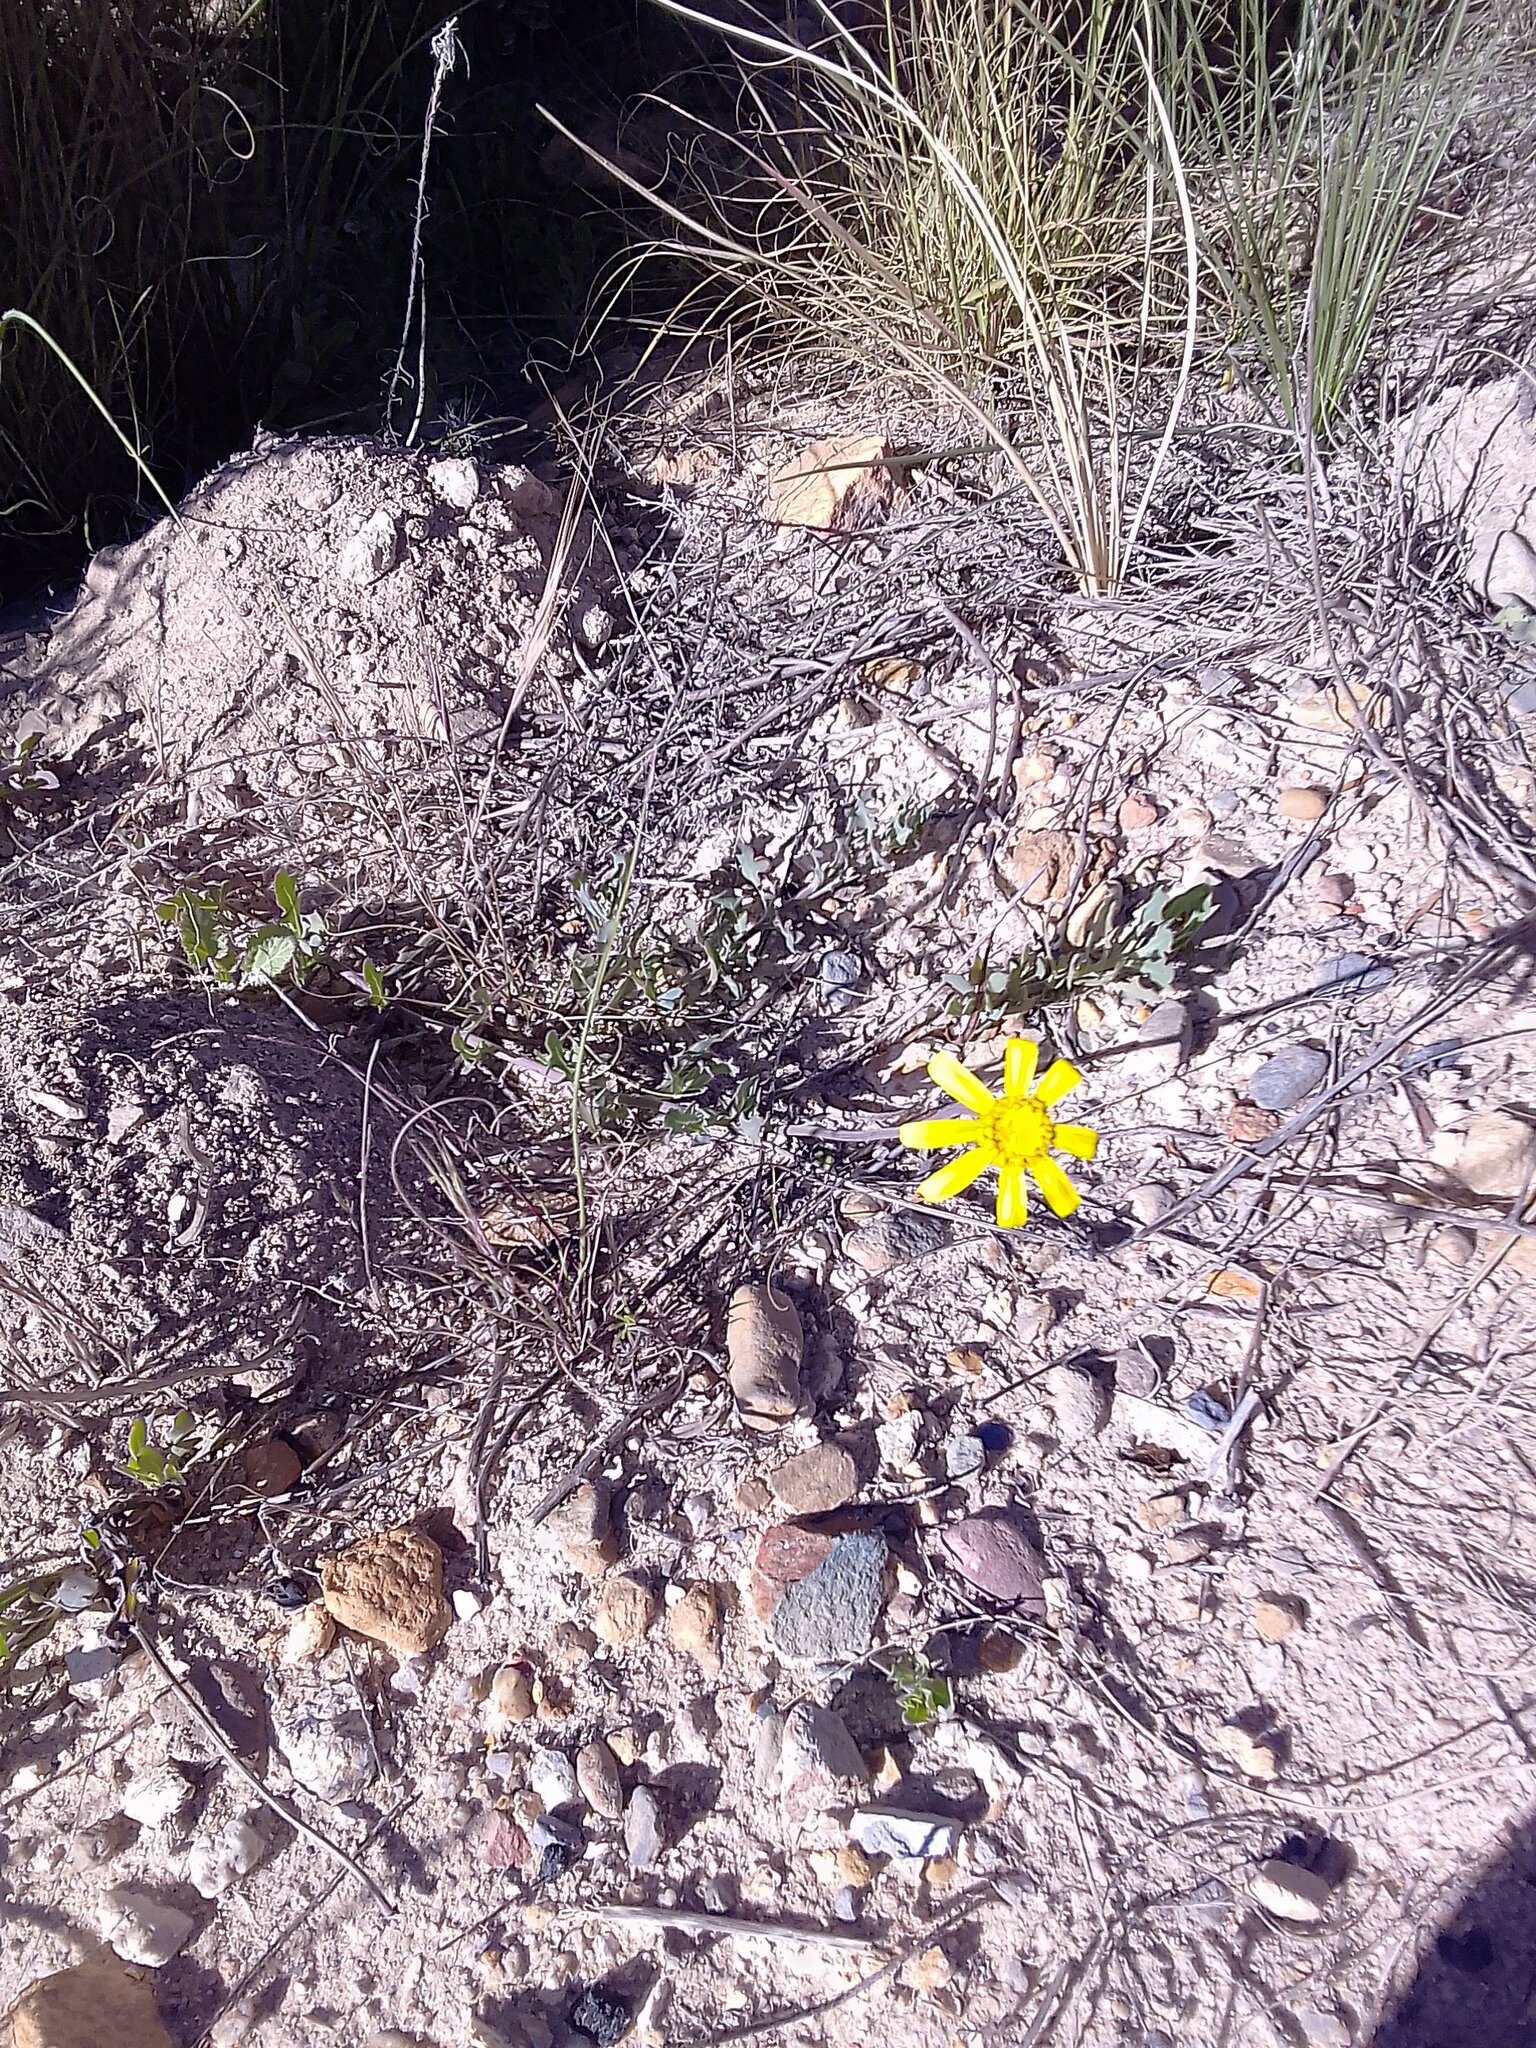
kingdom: Plantae
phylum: Tracheophyta
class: Magnoliopsida
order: Asterales
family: Asteraceae
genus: Othonna
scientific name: Othonna ciliata
